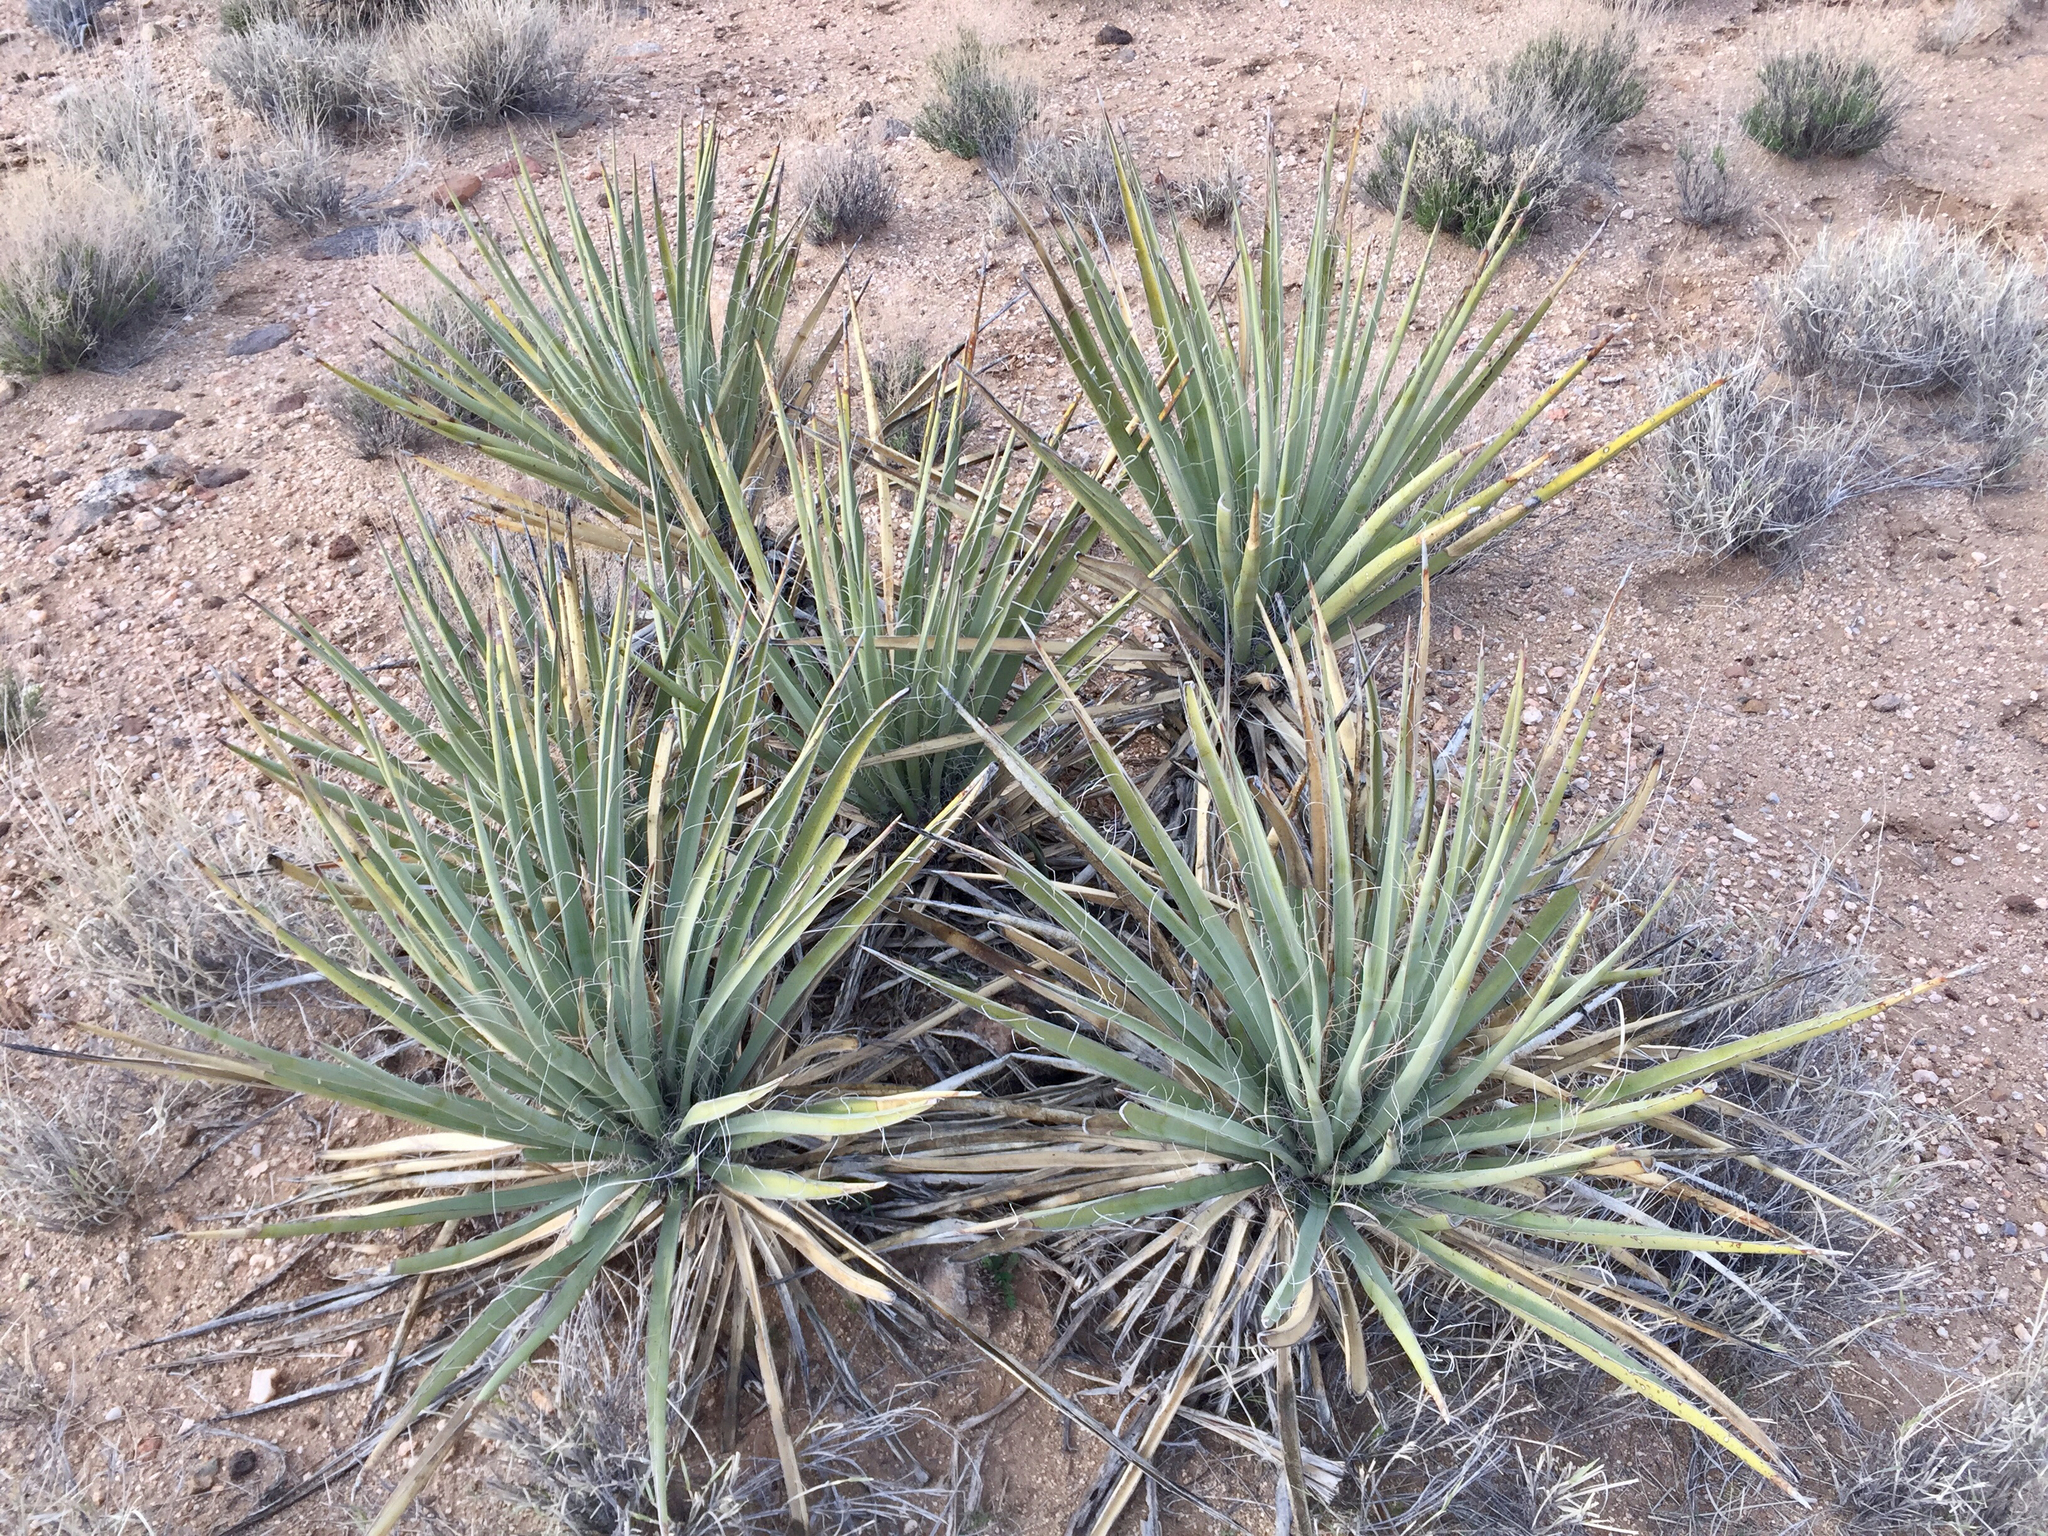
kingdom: Plantae
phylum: Tracheophyta
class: Liliopsida
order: Asparagales
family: Asparagaceae
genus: Yucca
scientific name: Yucca baccata
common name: Banana yucca
